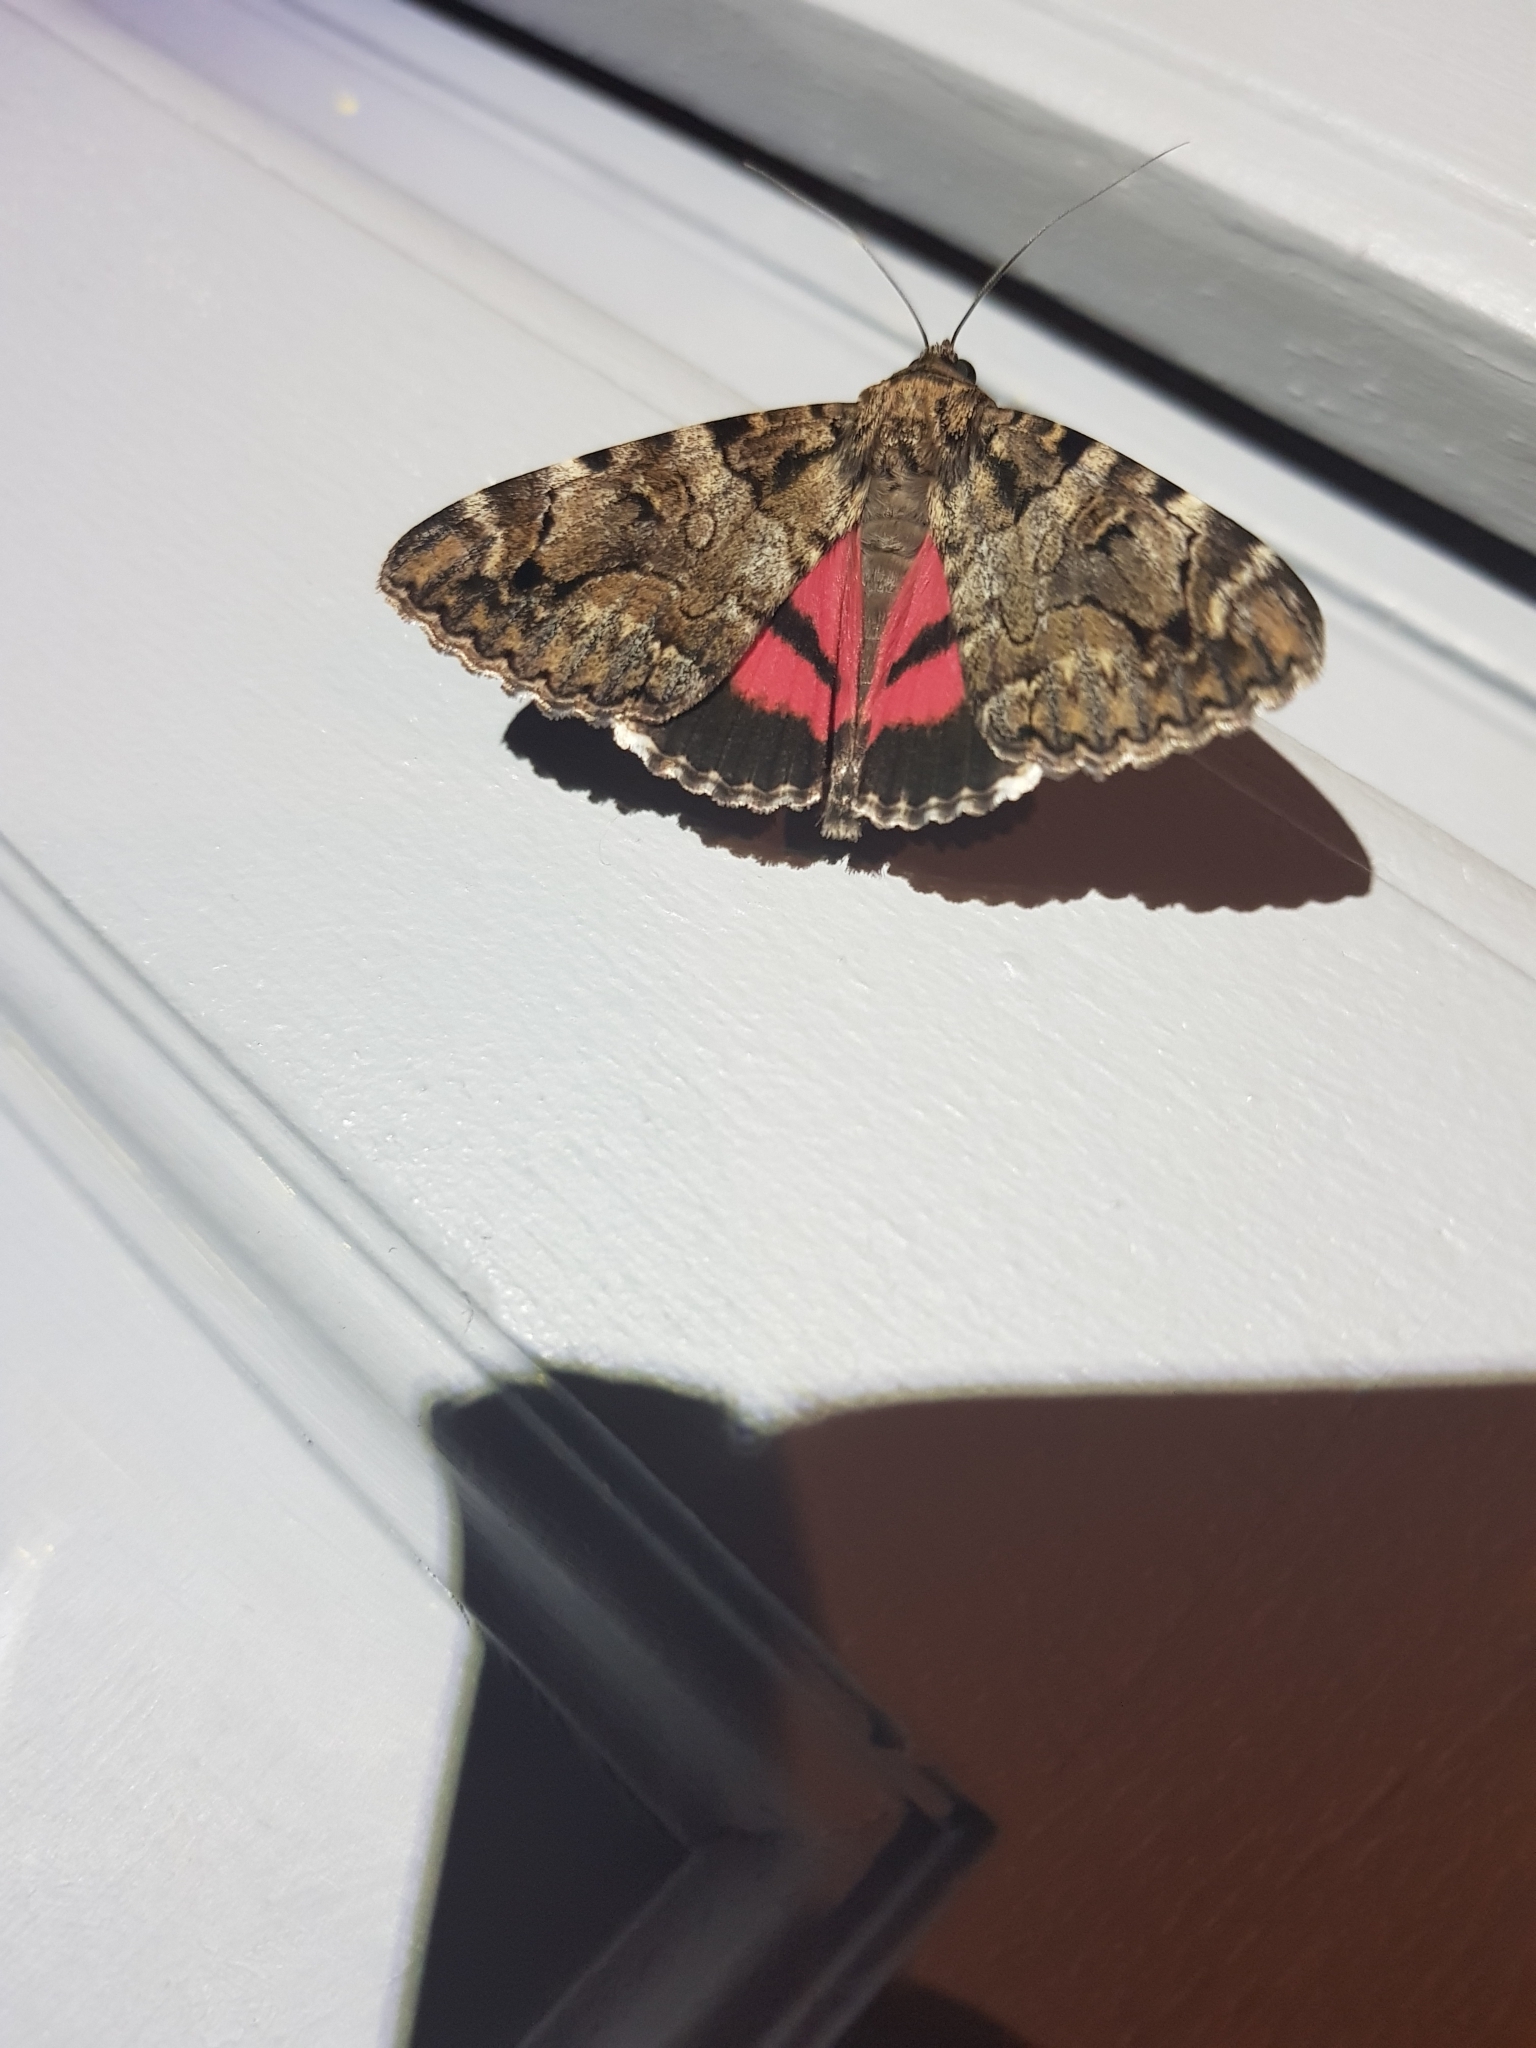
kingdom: Animalia
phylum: Arthropoda
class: Insecta
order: Lepidoptera
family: Erebidae
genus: Catocala
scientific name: Catocala coniuncta
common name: Minsmere crimson underwing
